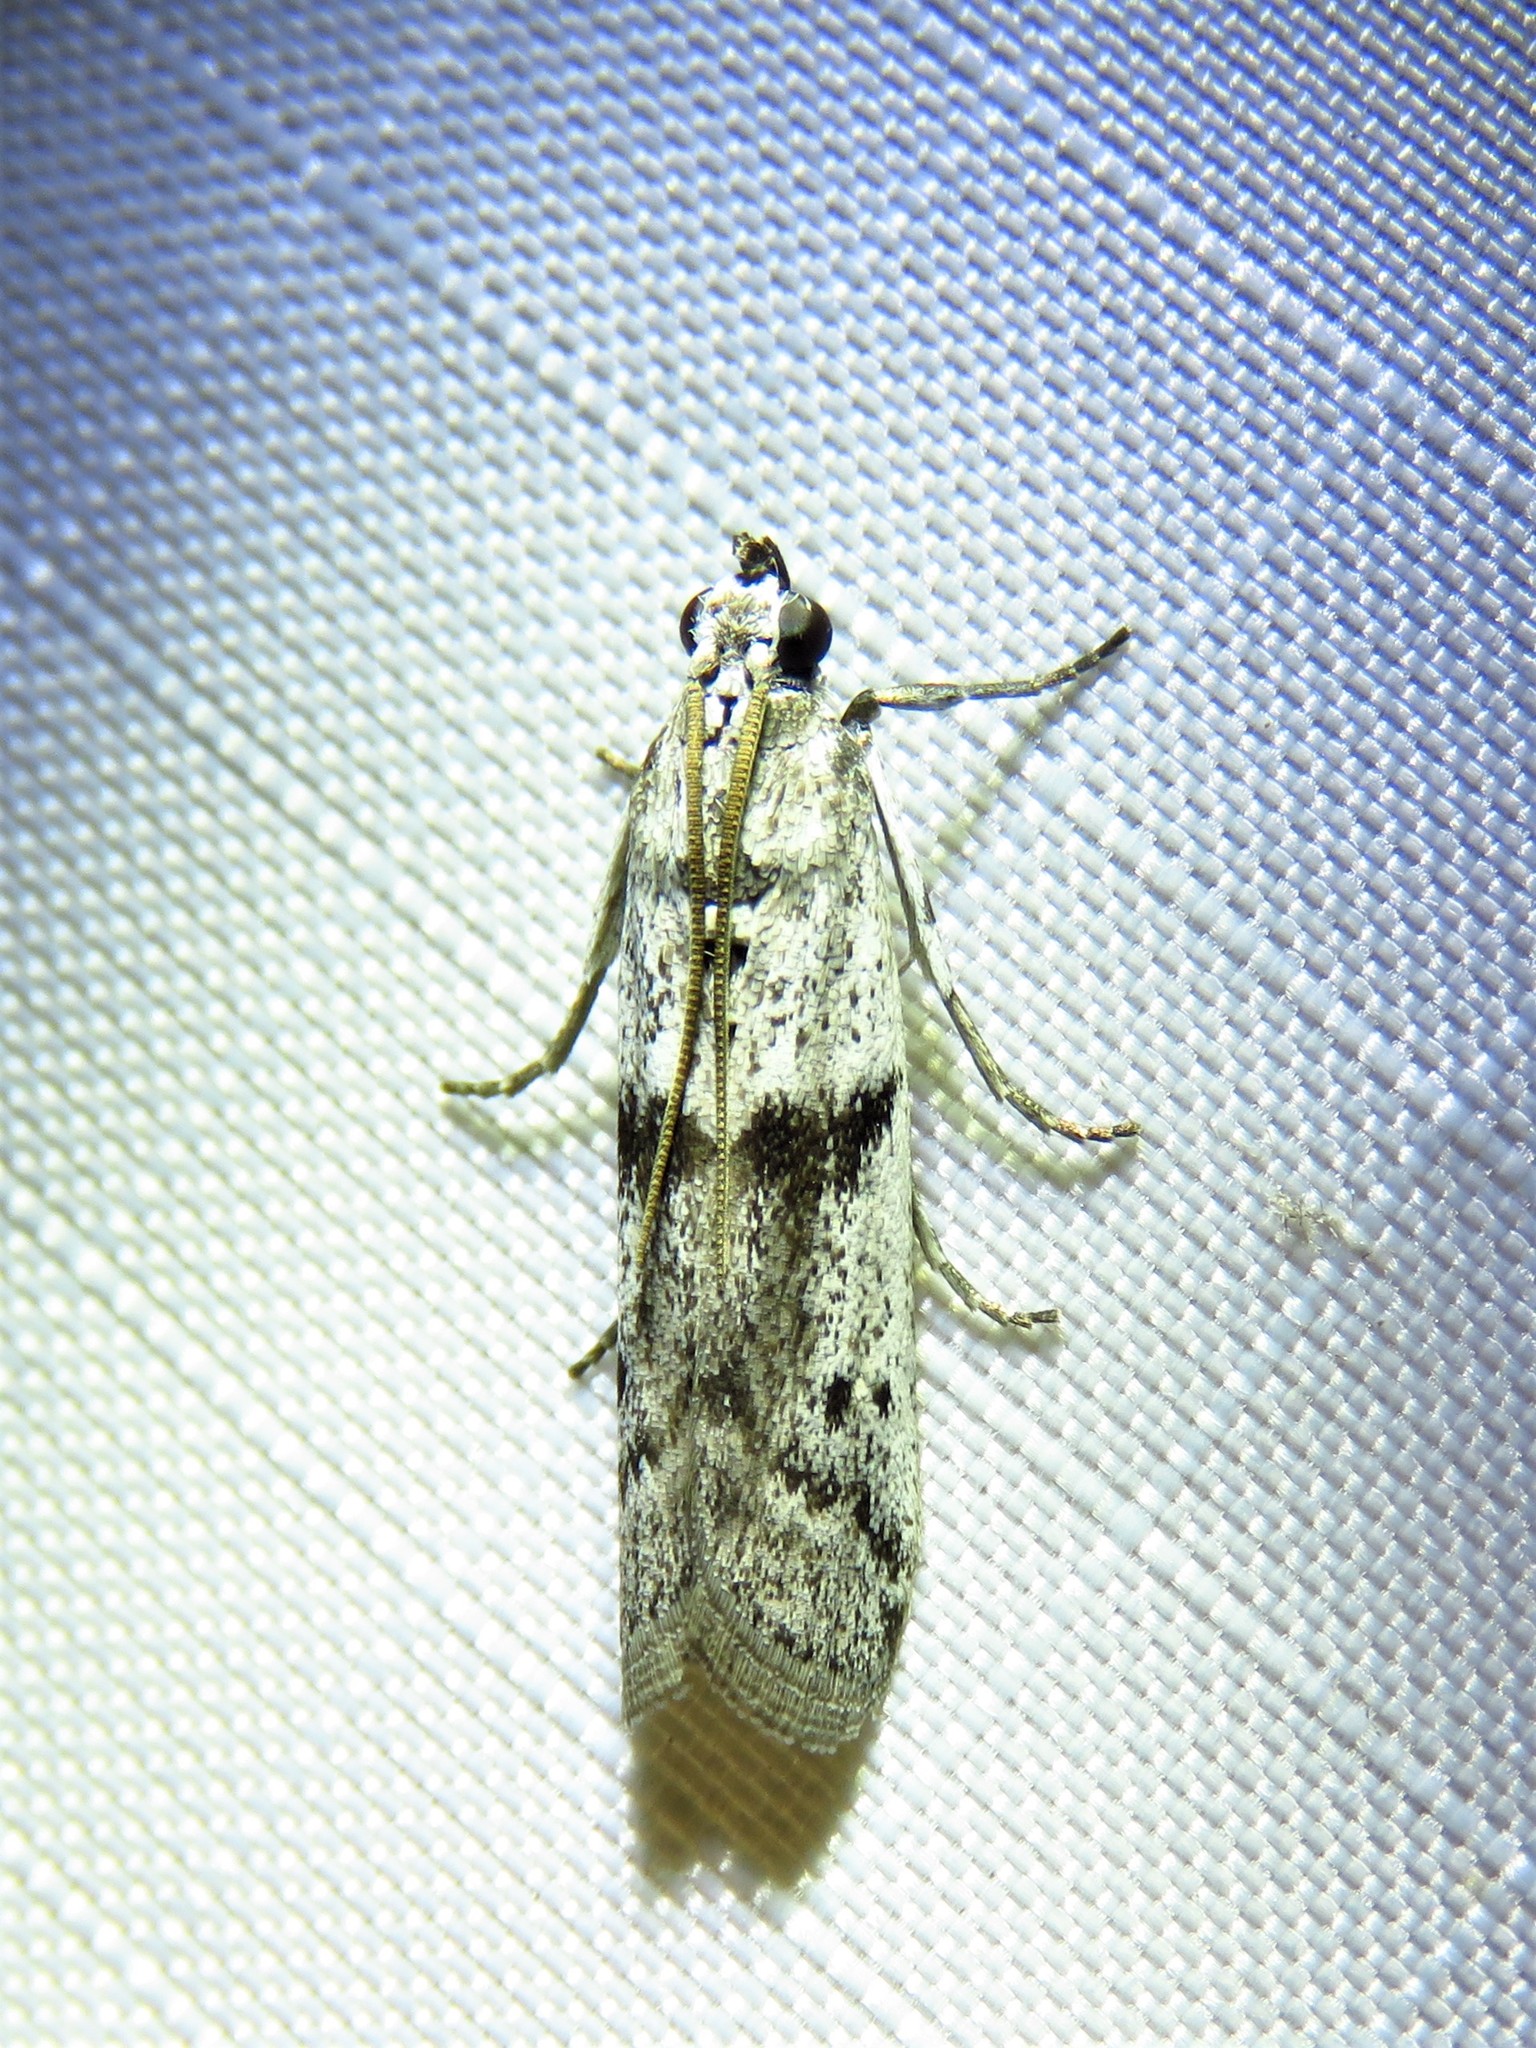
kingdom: Animalia
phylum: Arthropoda
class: Insecta
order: Lepidoptera
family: Pyralidae
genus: Homoeosoma
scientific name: Homoeosoma deceptorium
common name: Black-banded homoeosoma moth
